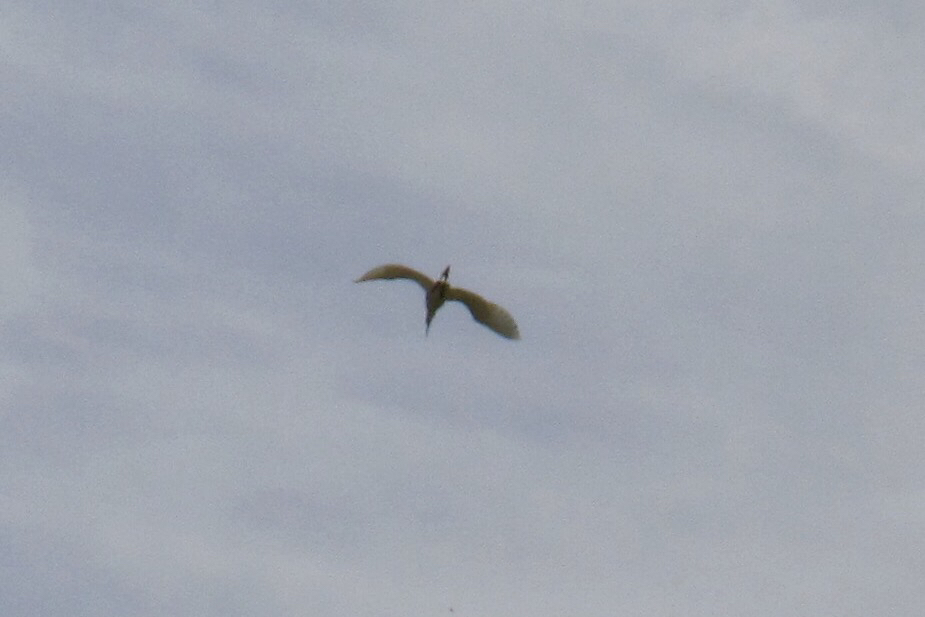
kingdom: Animalia
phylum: Chordata
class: Aves
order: Pelecaniformes
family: Ardeidae
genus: Ardea
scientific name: Ardea alba
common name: Great egret
